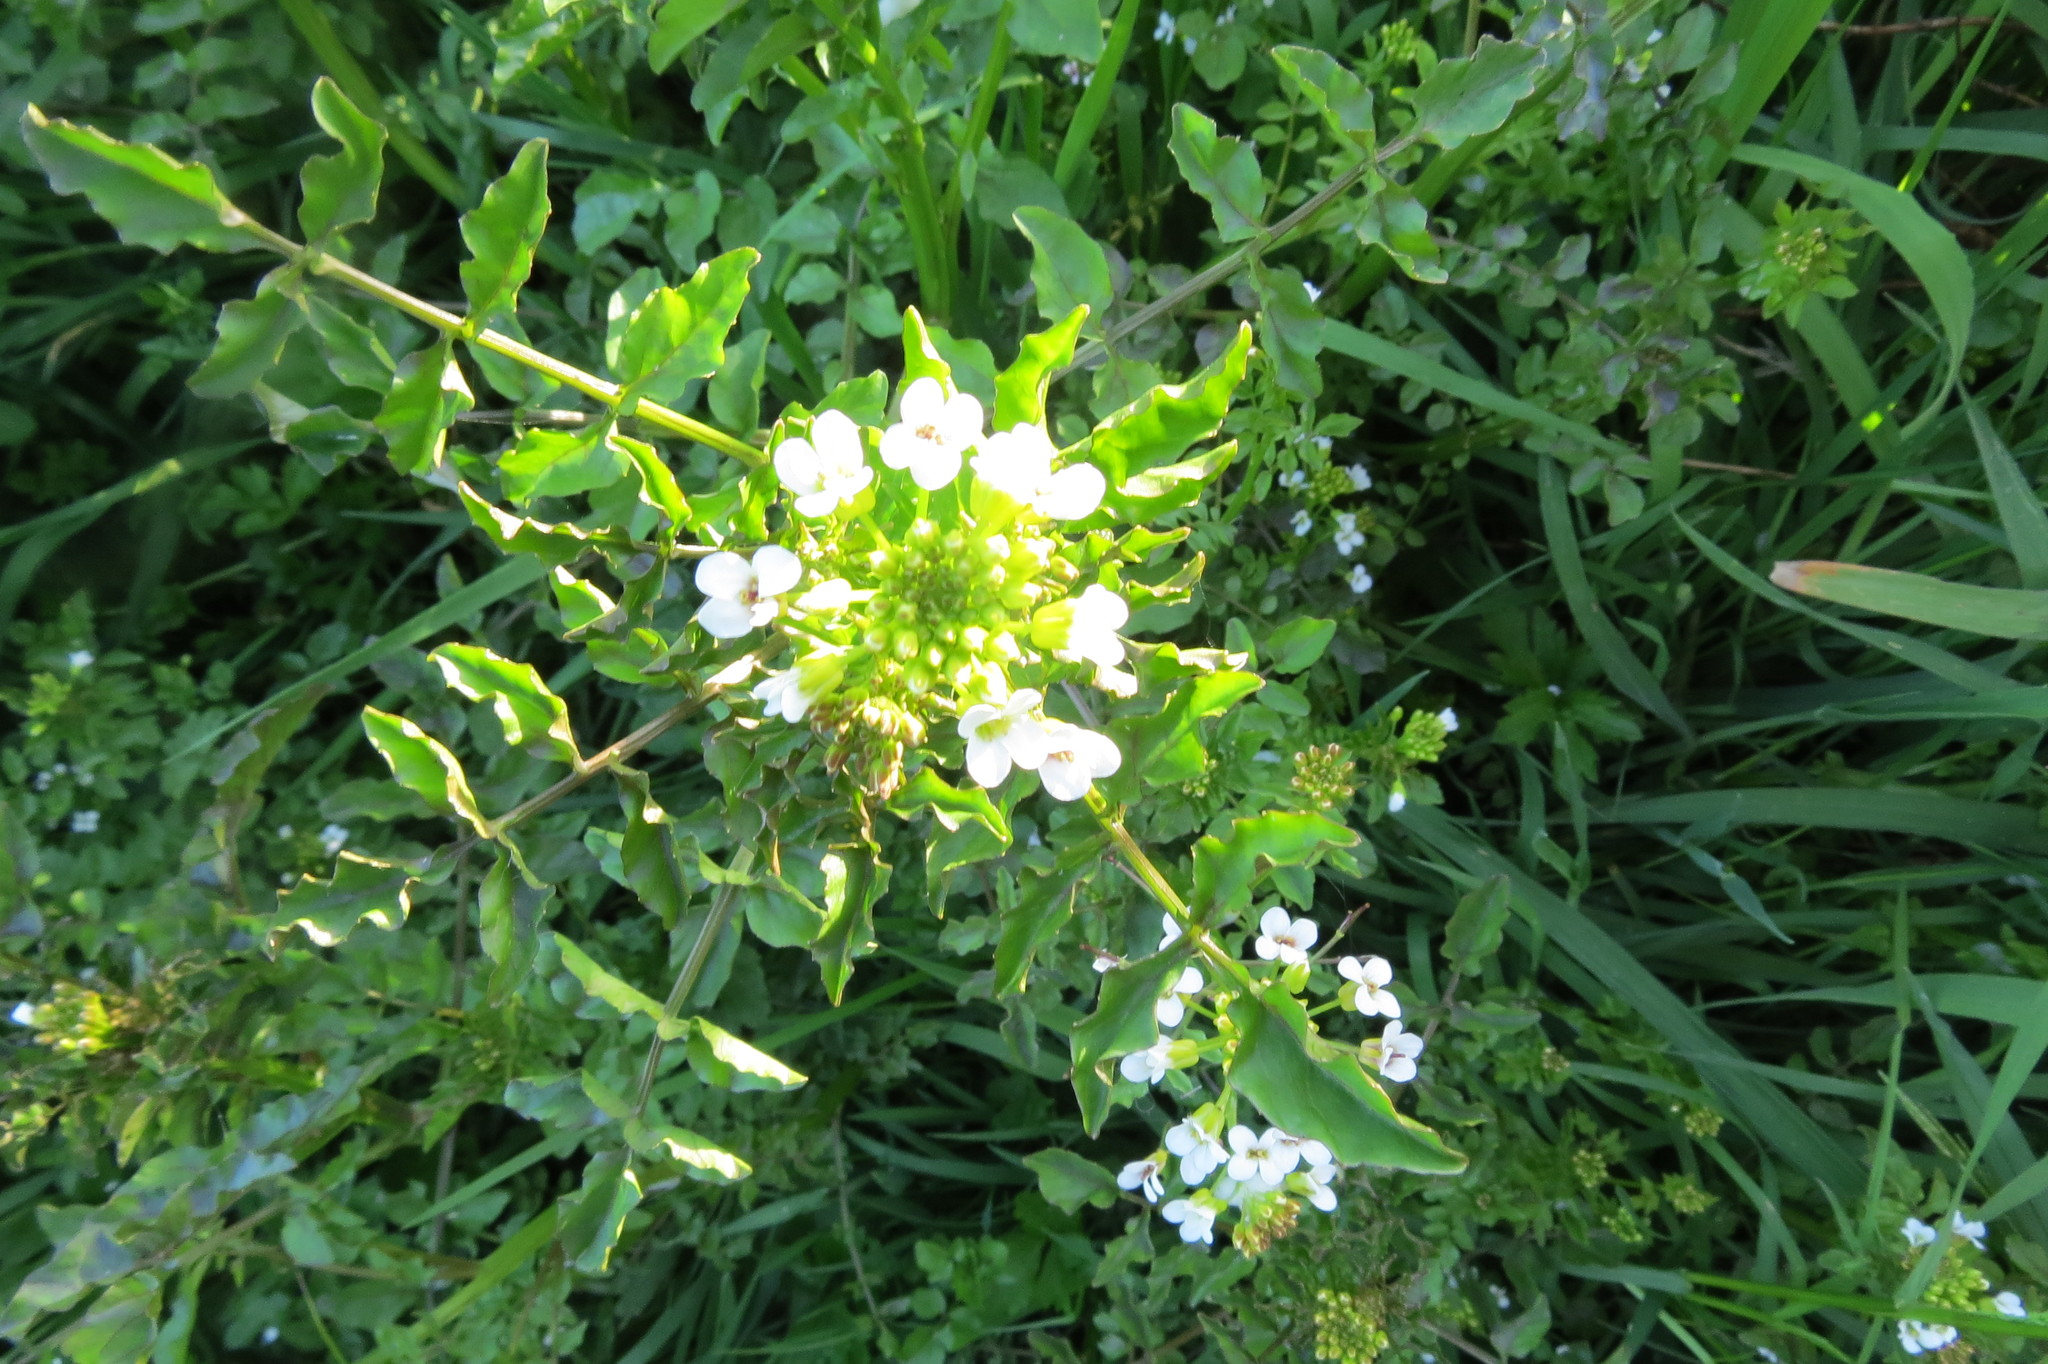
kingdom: Plantae
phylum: Tracheophyta
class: Magnoliopsida
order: Brassicales
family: Brassicaceae
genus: Nasturtium
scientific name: Nasturtium microphyllum
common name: Onerow yellowcress
